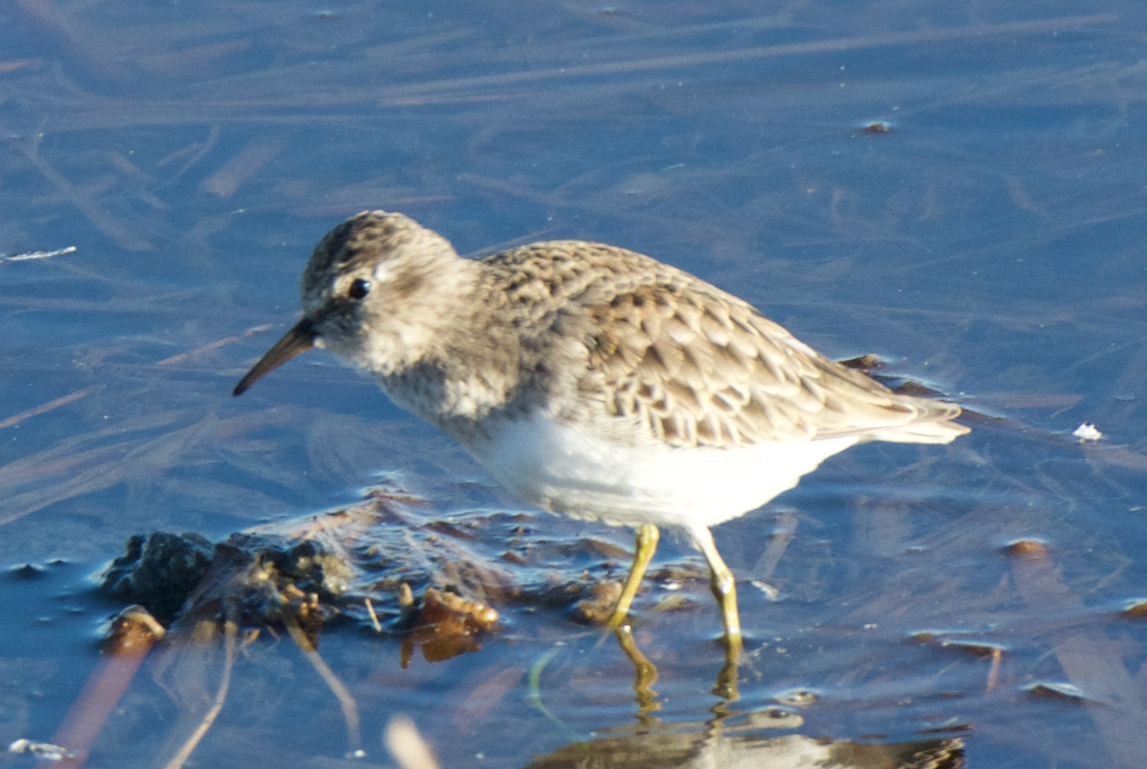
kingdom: Animalia
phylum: Chordata
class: Aves
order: Charadriiformes
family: Scolopacidae
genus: Calidris
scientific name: Calidris minutilla
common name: Least sandpiper
